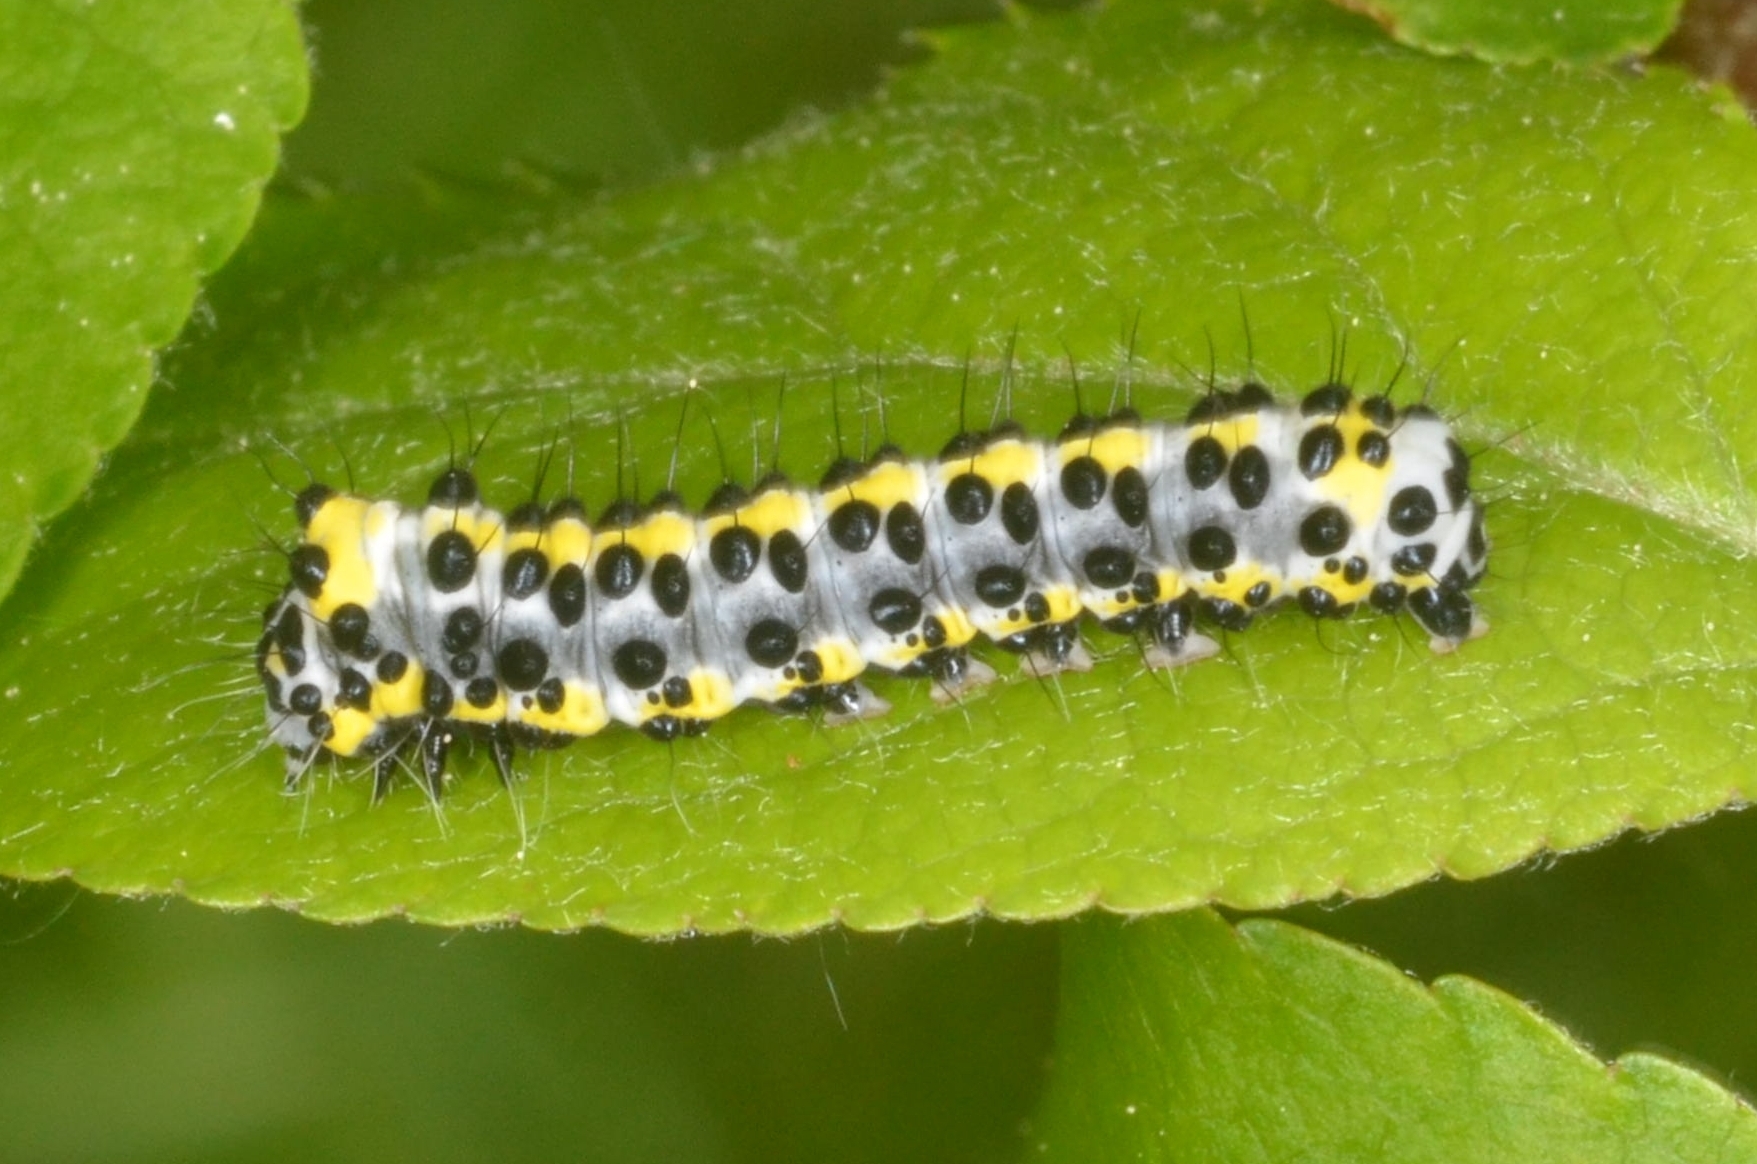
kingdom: Animalia
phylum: Arthropoda
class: Insecta
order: Lepidoptera
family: Noctuidae
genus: Diloba
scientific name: Diloba caeruleocephala
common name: Figure of eight
